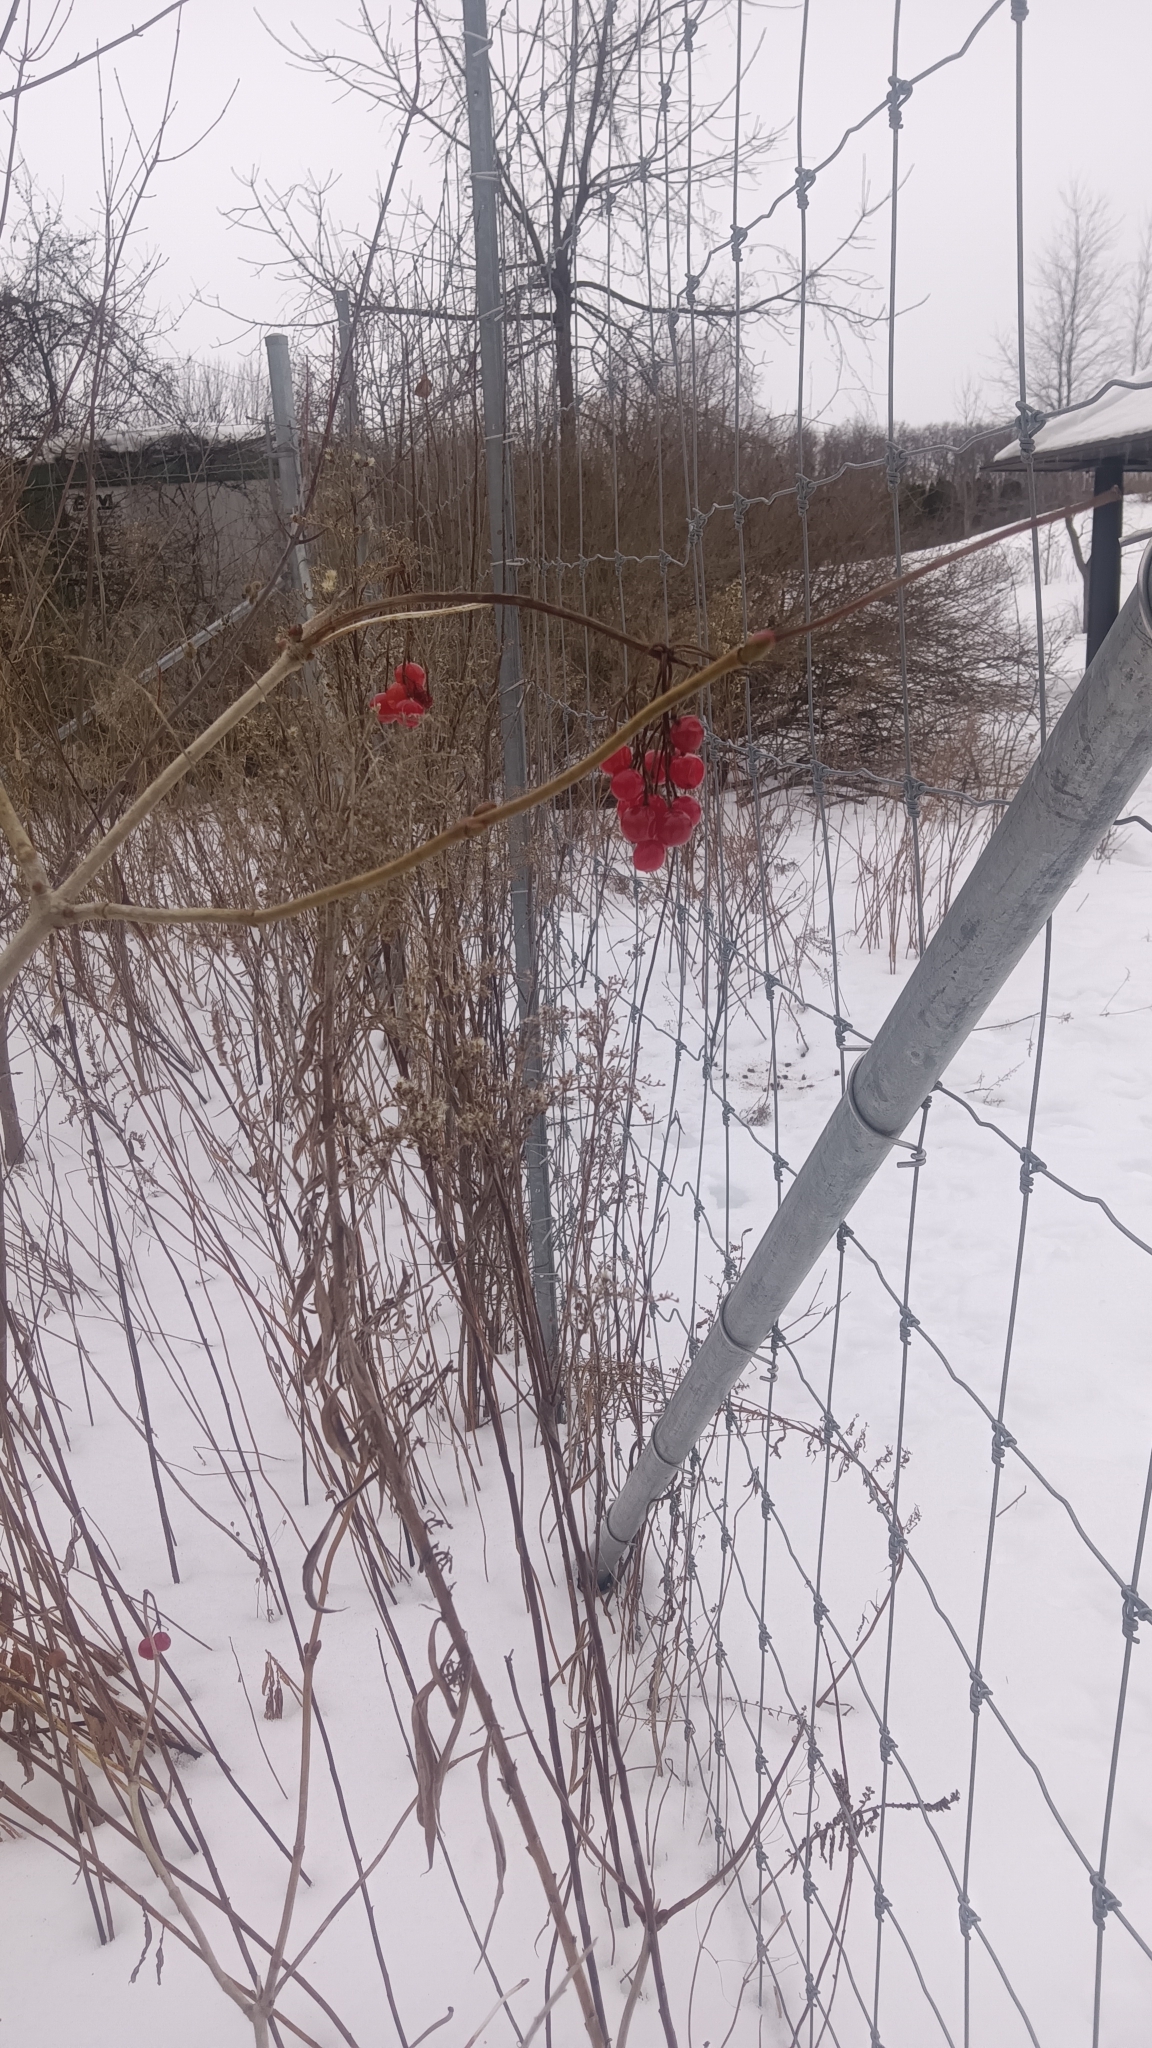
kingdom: Plantae
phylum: Tracheophyta
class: Magnoliopsida
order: Dipsacales
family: Viburnaceae
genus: Viburnum
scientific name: Viburnum opulus
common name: Guelder-rose
